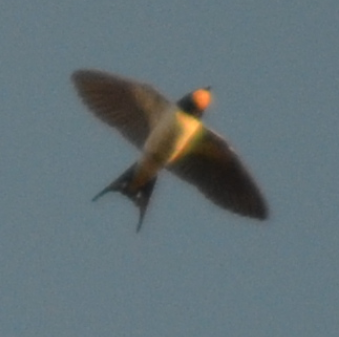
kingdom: Animalia
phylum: Chordata
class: Aves
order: Passeriformes
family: Hirundinidae
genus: Hirundo
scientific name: Hirundo rustica
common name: Barn swallow
